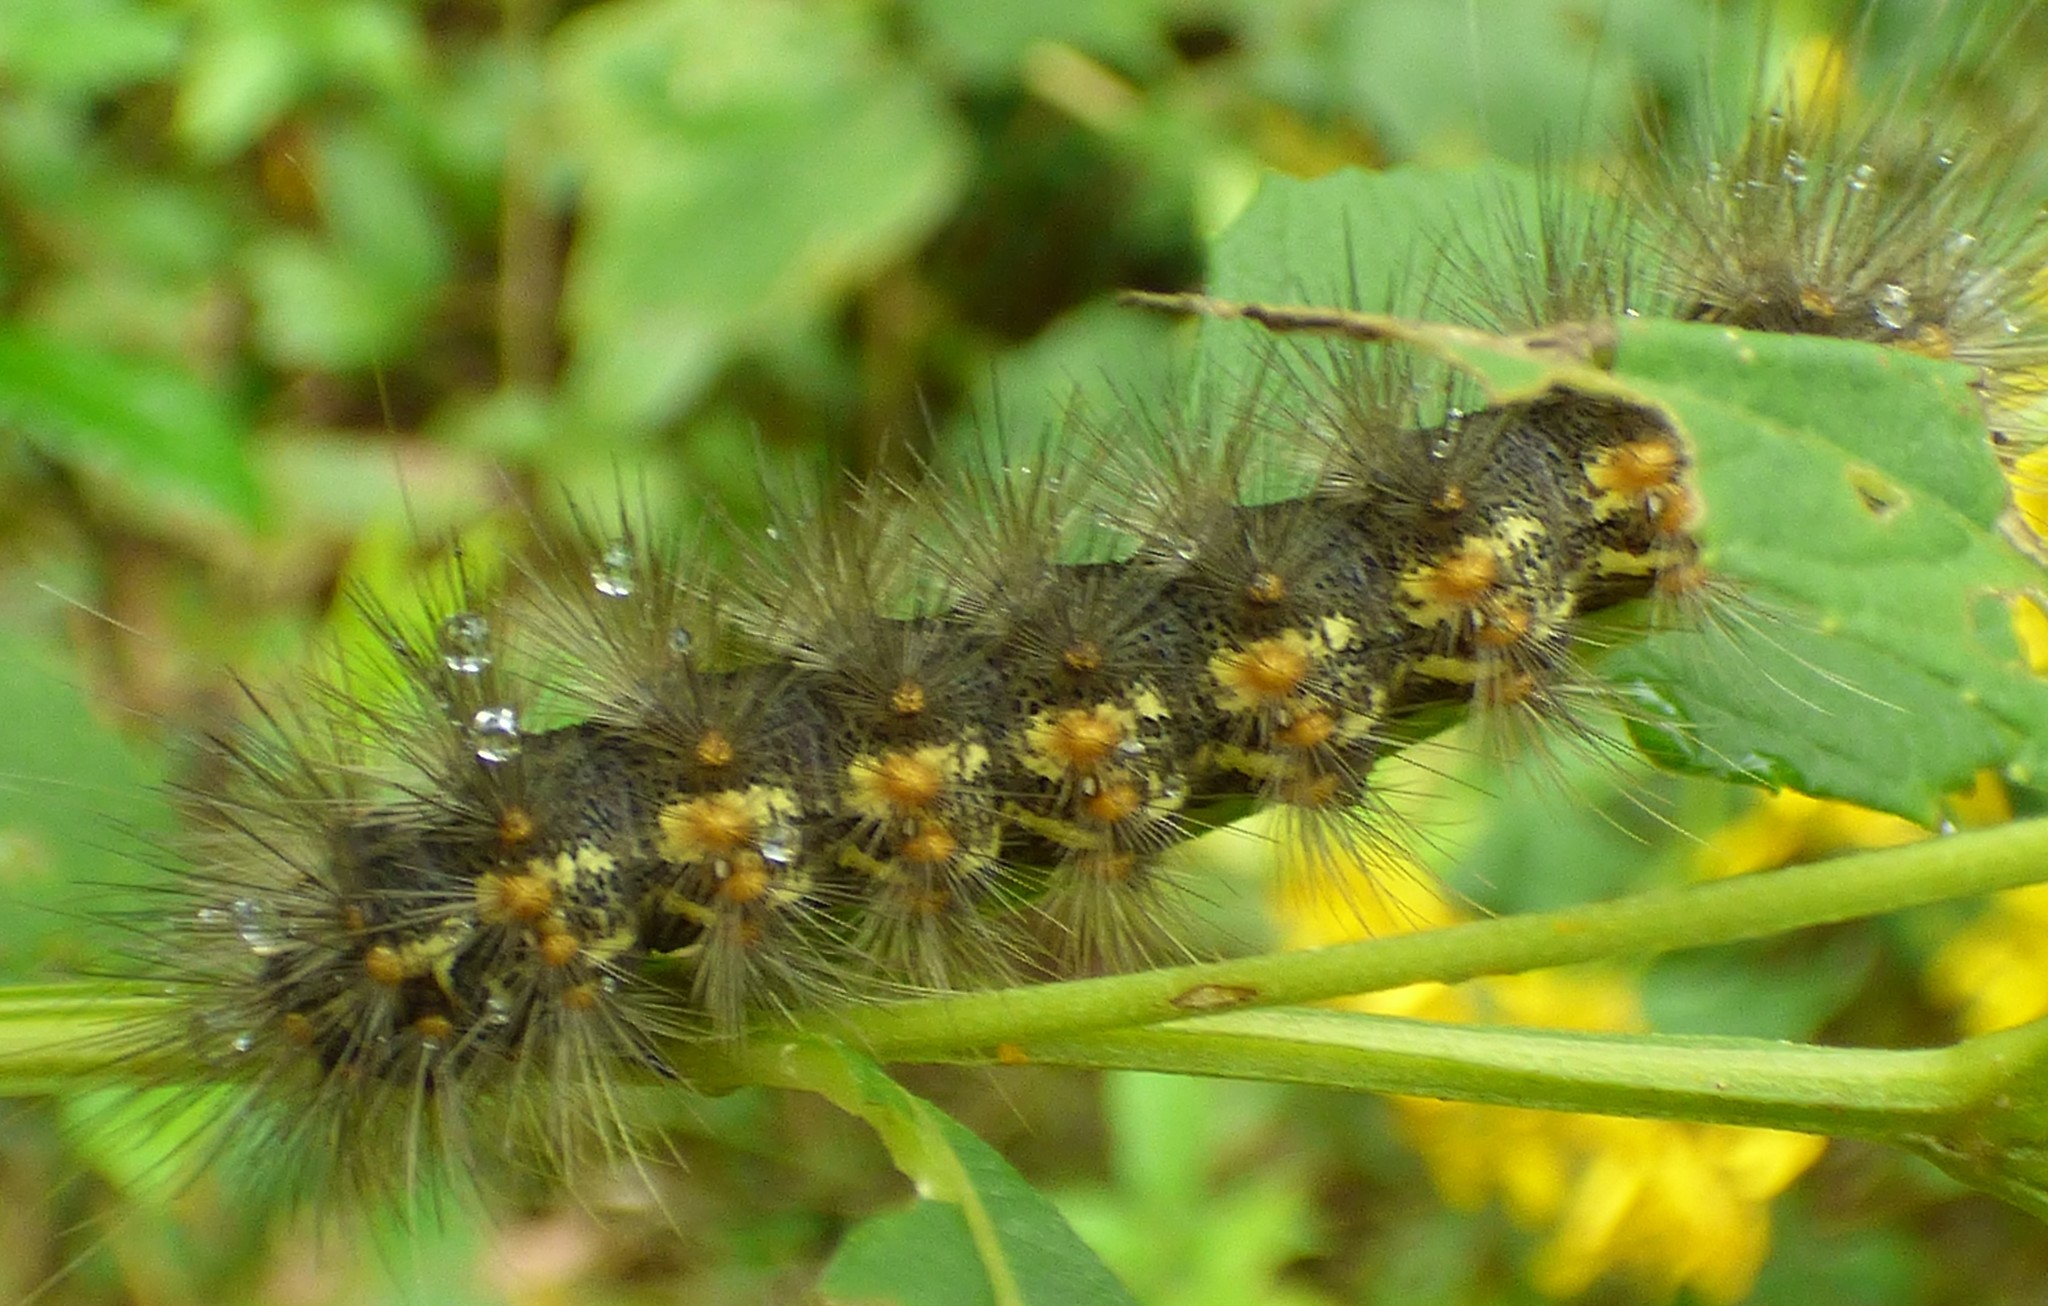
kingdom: Animalia
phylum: Arthropoda
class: Insecta
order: Lepidoptera
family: Erebidae
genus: Estigmene
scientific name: Estigmene acrea
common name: Salt marsh moth
